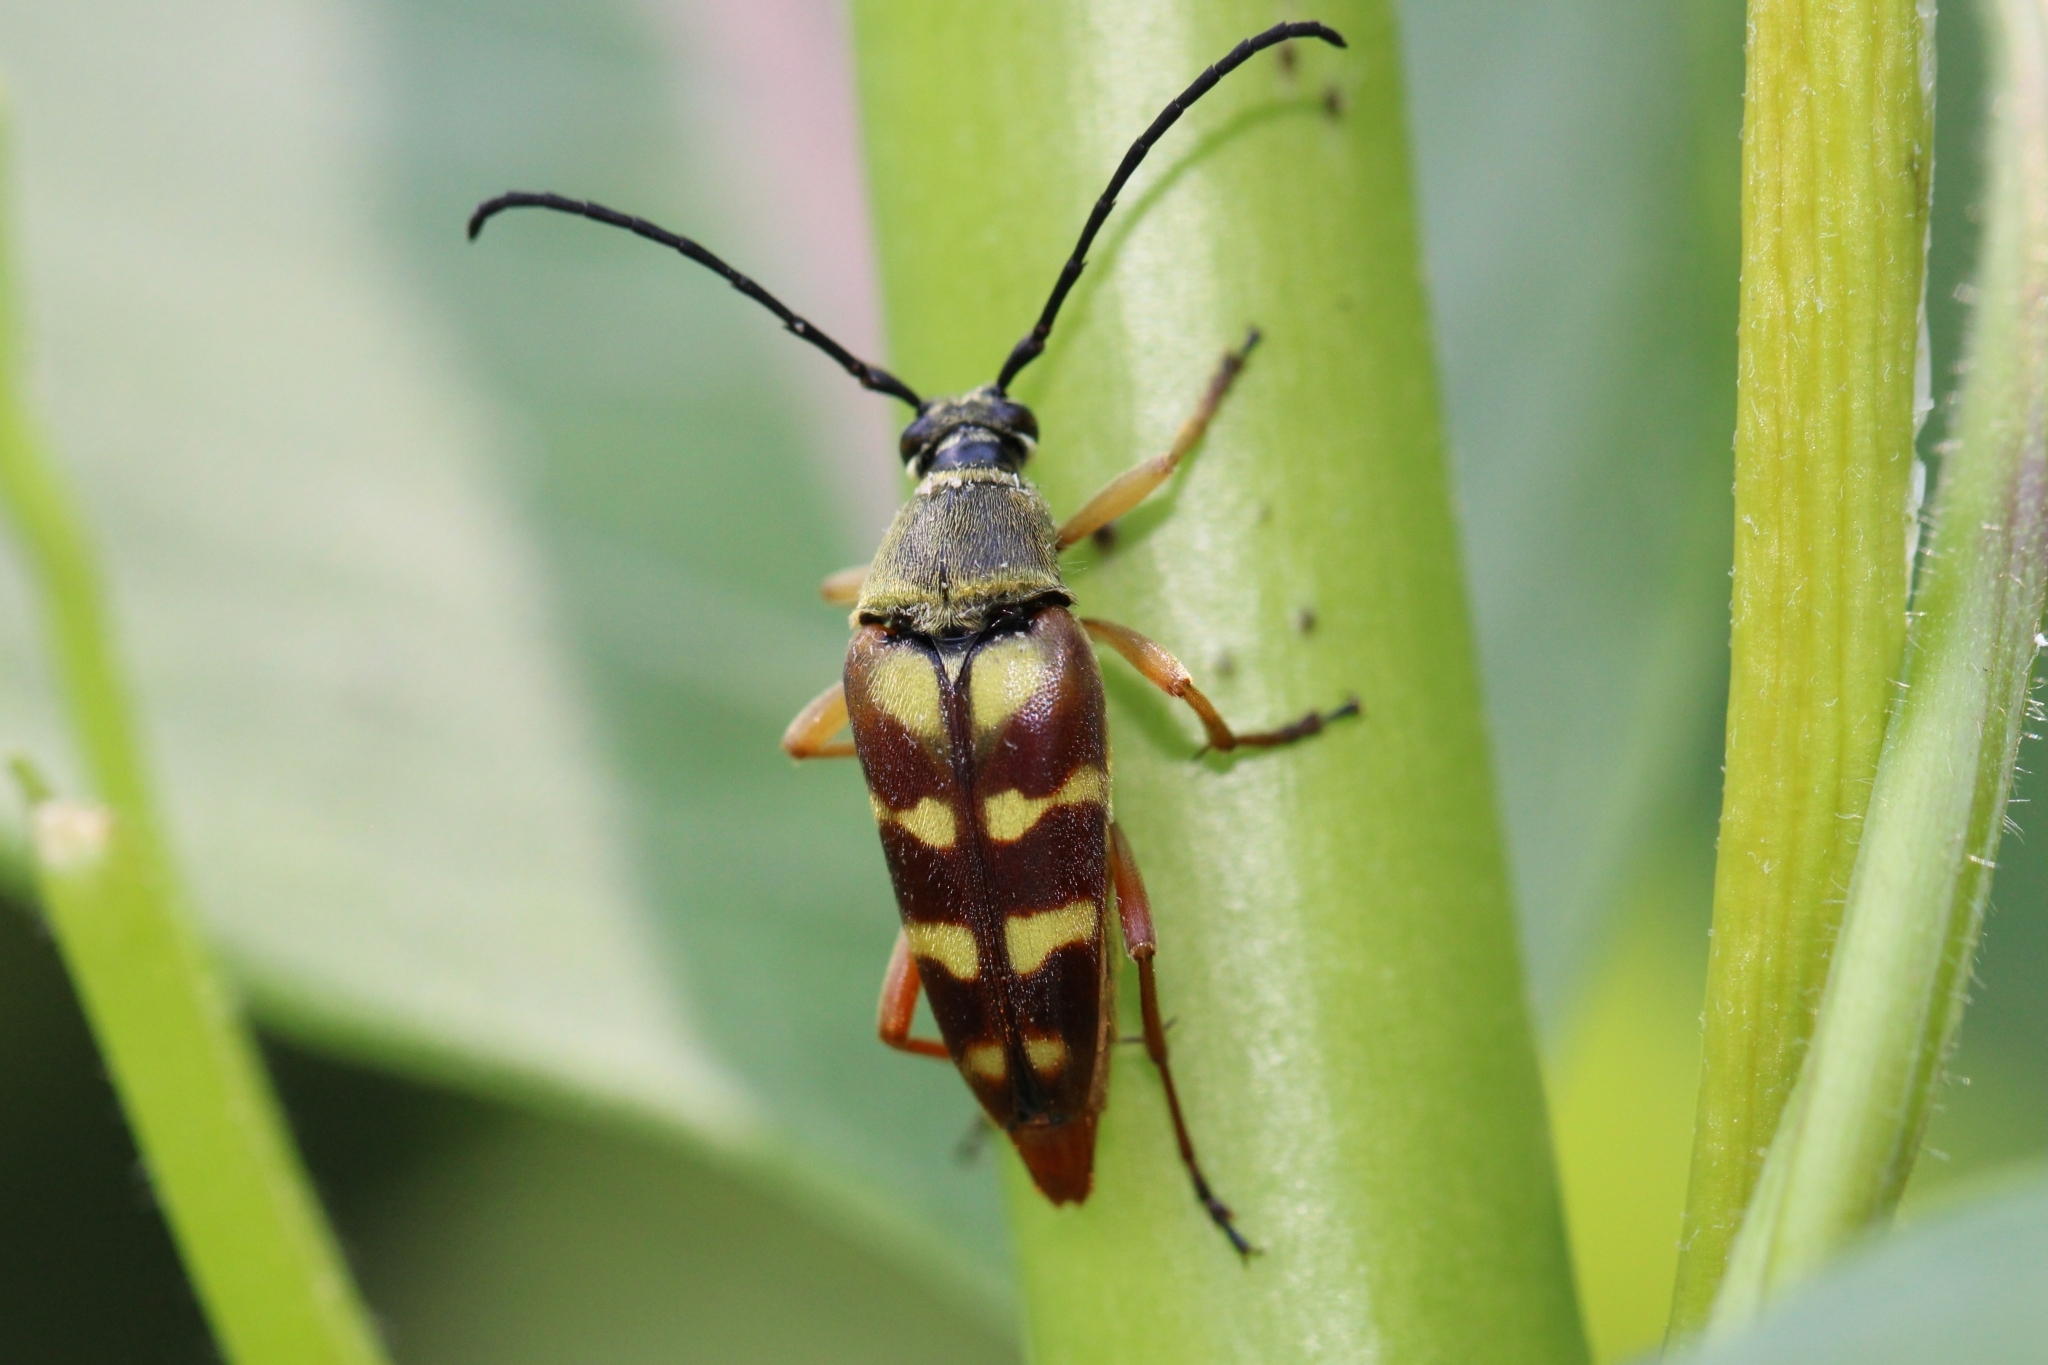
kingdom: Animalia
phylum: Arthropoda
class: Insecta
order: Coleoptera
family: Cerambycidae
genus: Typocerus
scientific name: Typocerus velutinus
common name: Banded longhorn beetle
